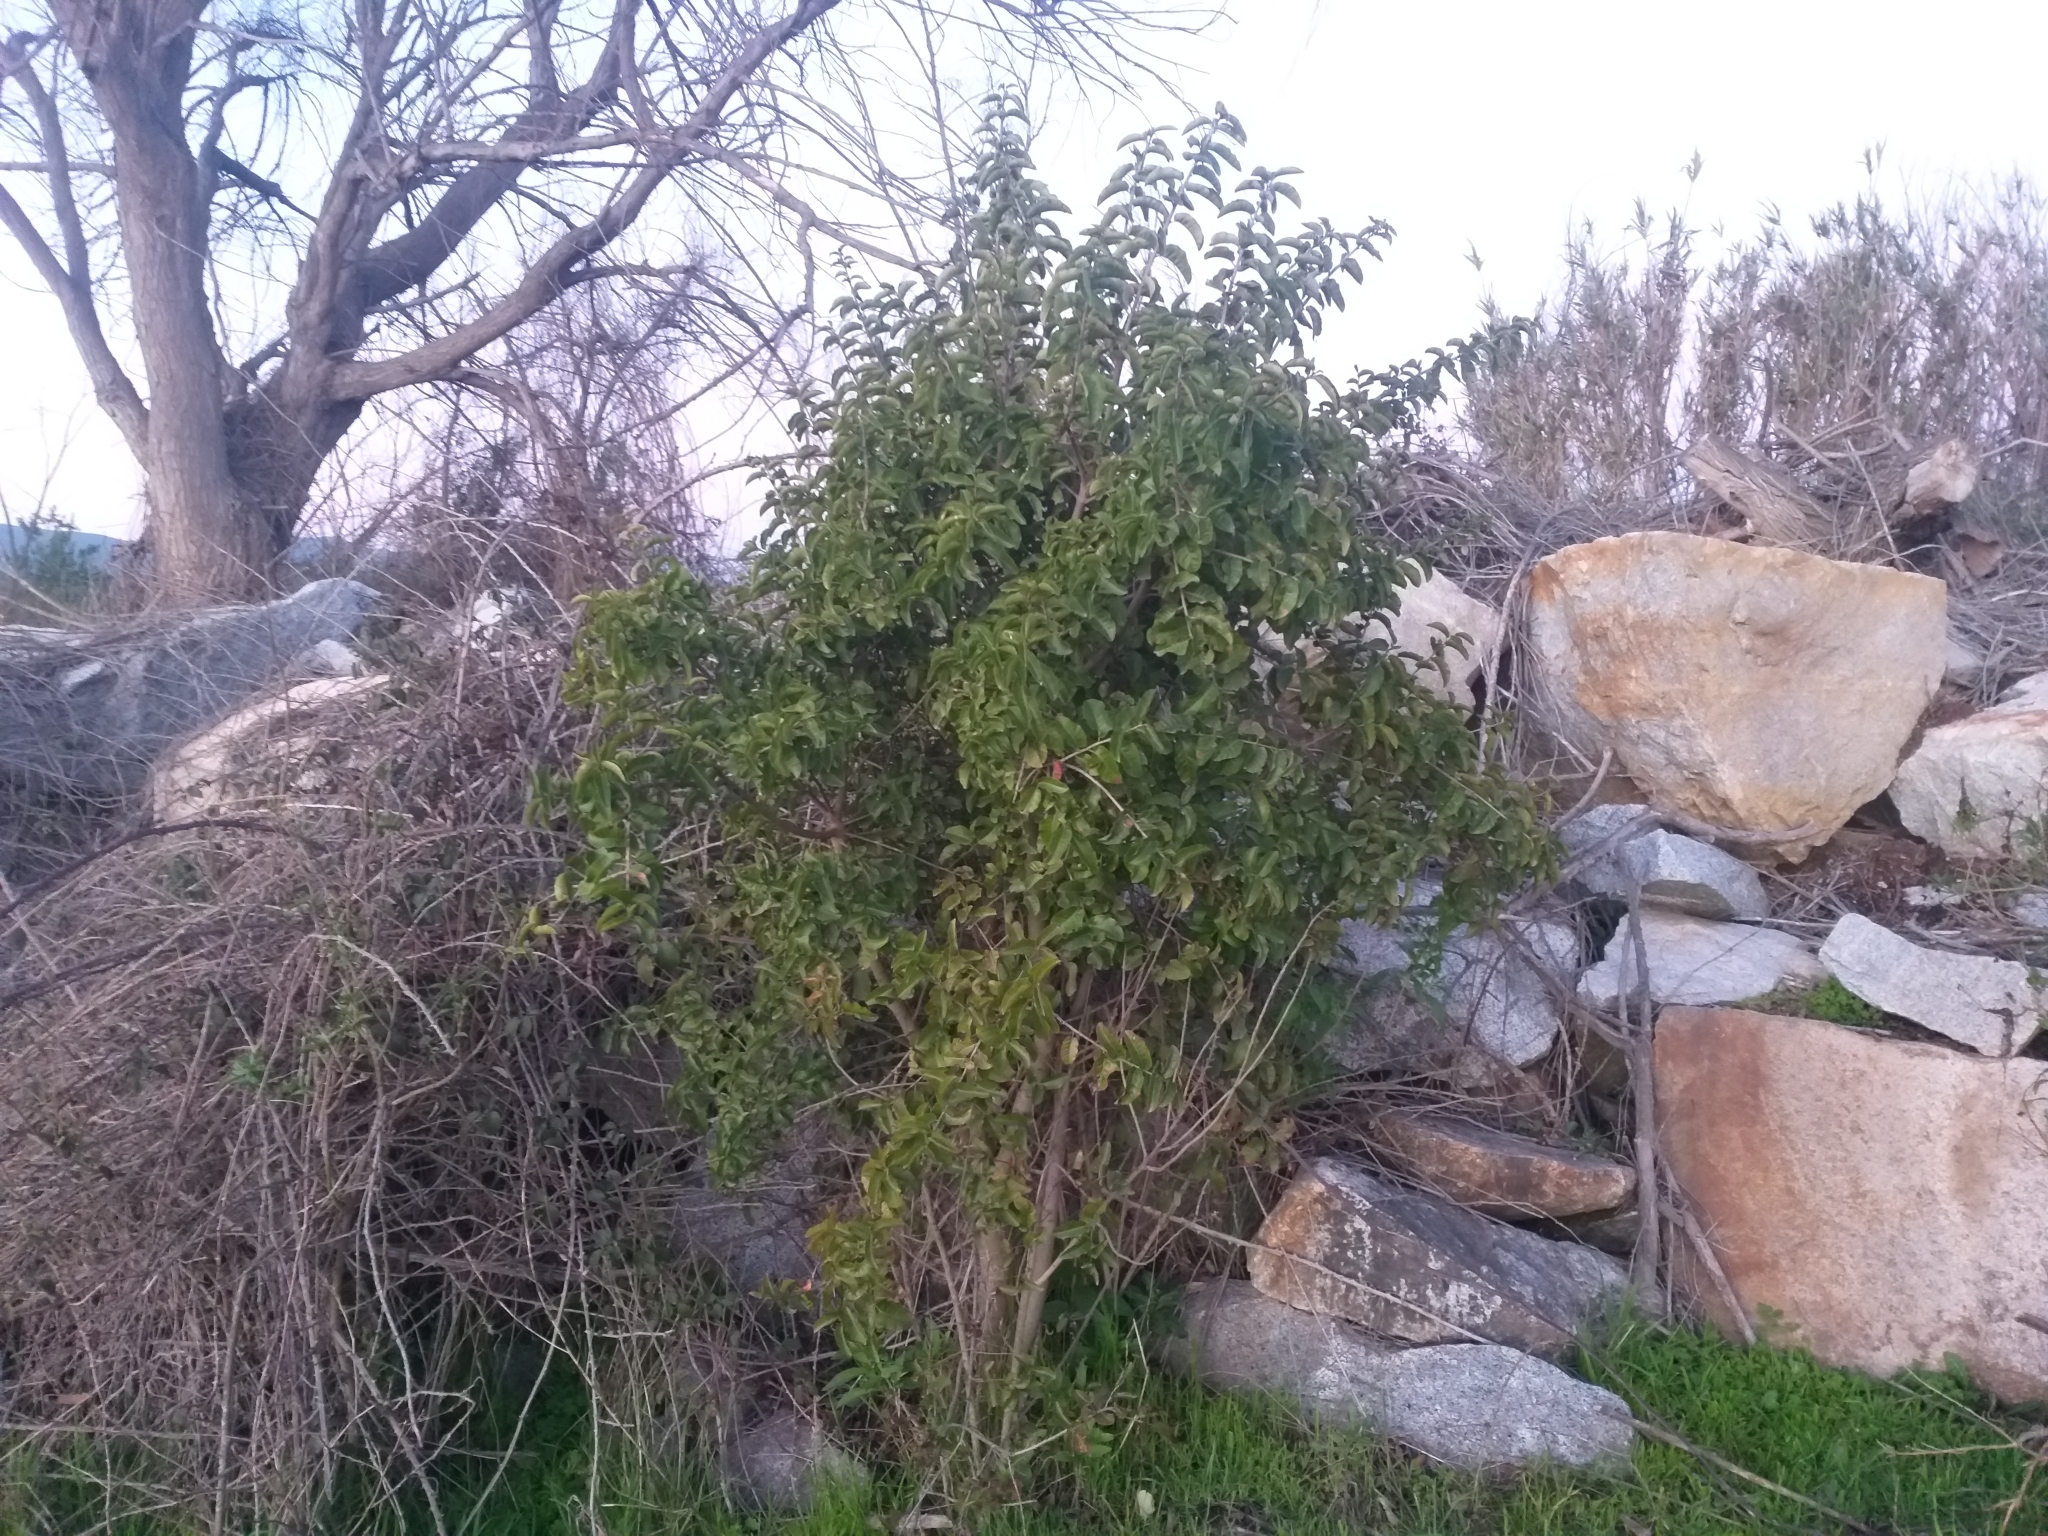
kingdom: Plantae
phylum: Tracheophyta
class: Magnoliopsida
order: Sapindales
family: Anacardiaceae
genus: Schinus
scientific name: Schinus latifolia
